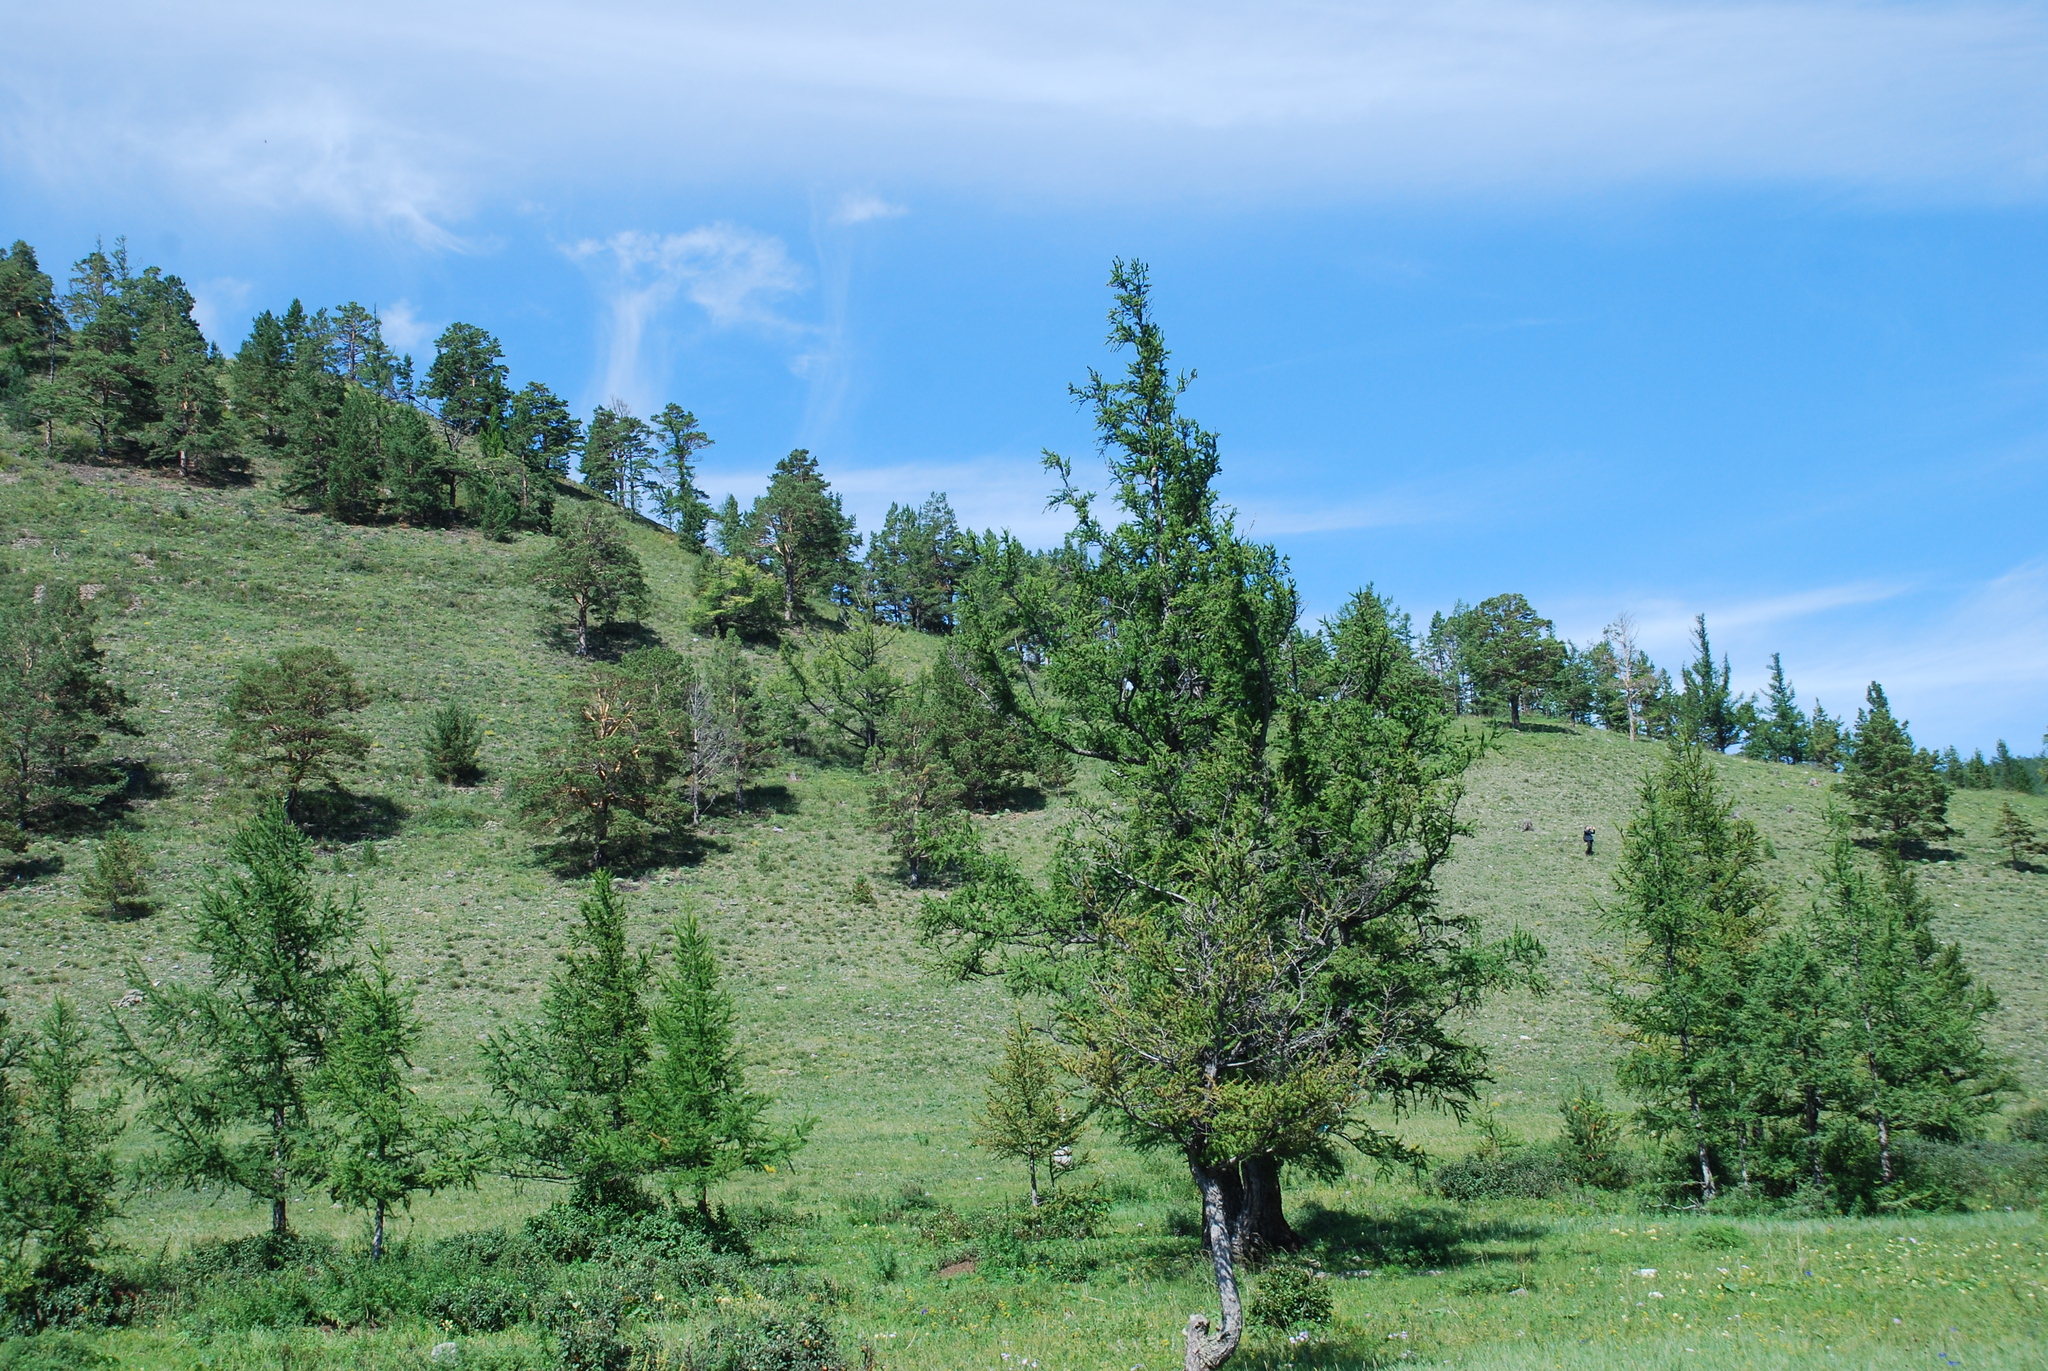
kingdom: Plantae
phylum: Tracheophyta
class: Pinopsida
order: Pinales
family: Pinaceae
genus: Picea
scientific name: Picea obovata
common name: Siberian spruce
